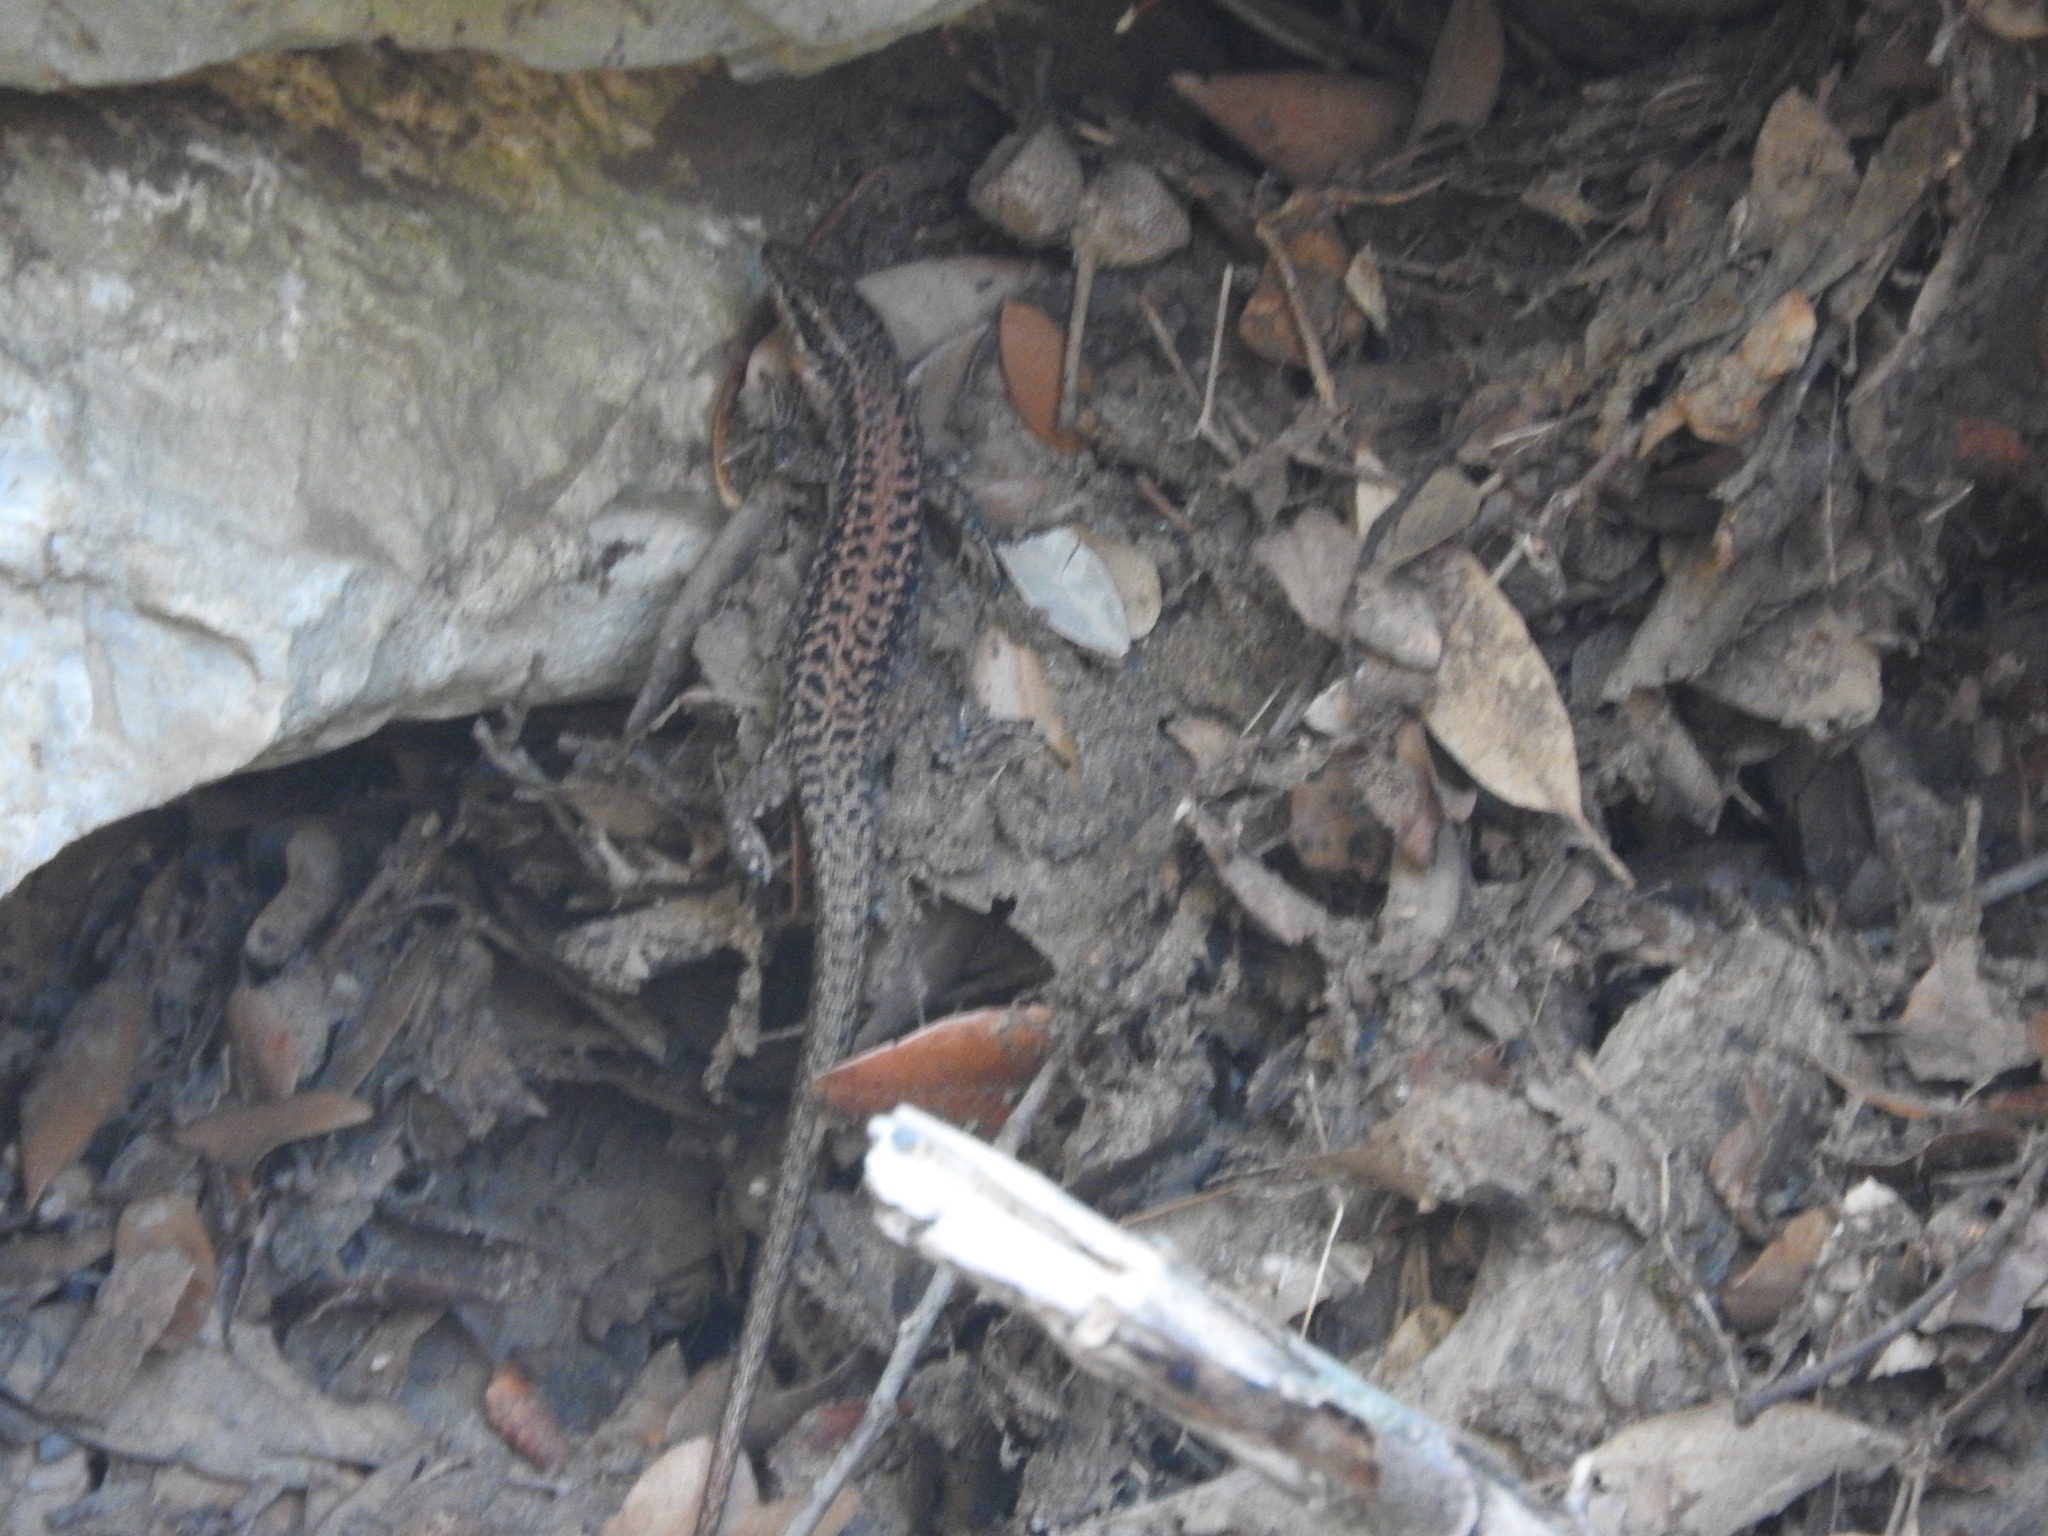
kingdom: Animalia
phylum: Chordata
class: Squamata
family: Lacertidae
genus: Podarcis
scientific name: Podarcis erhardii
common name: Erhard's wall lizard
